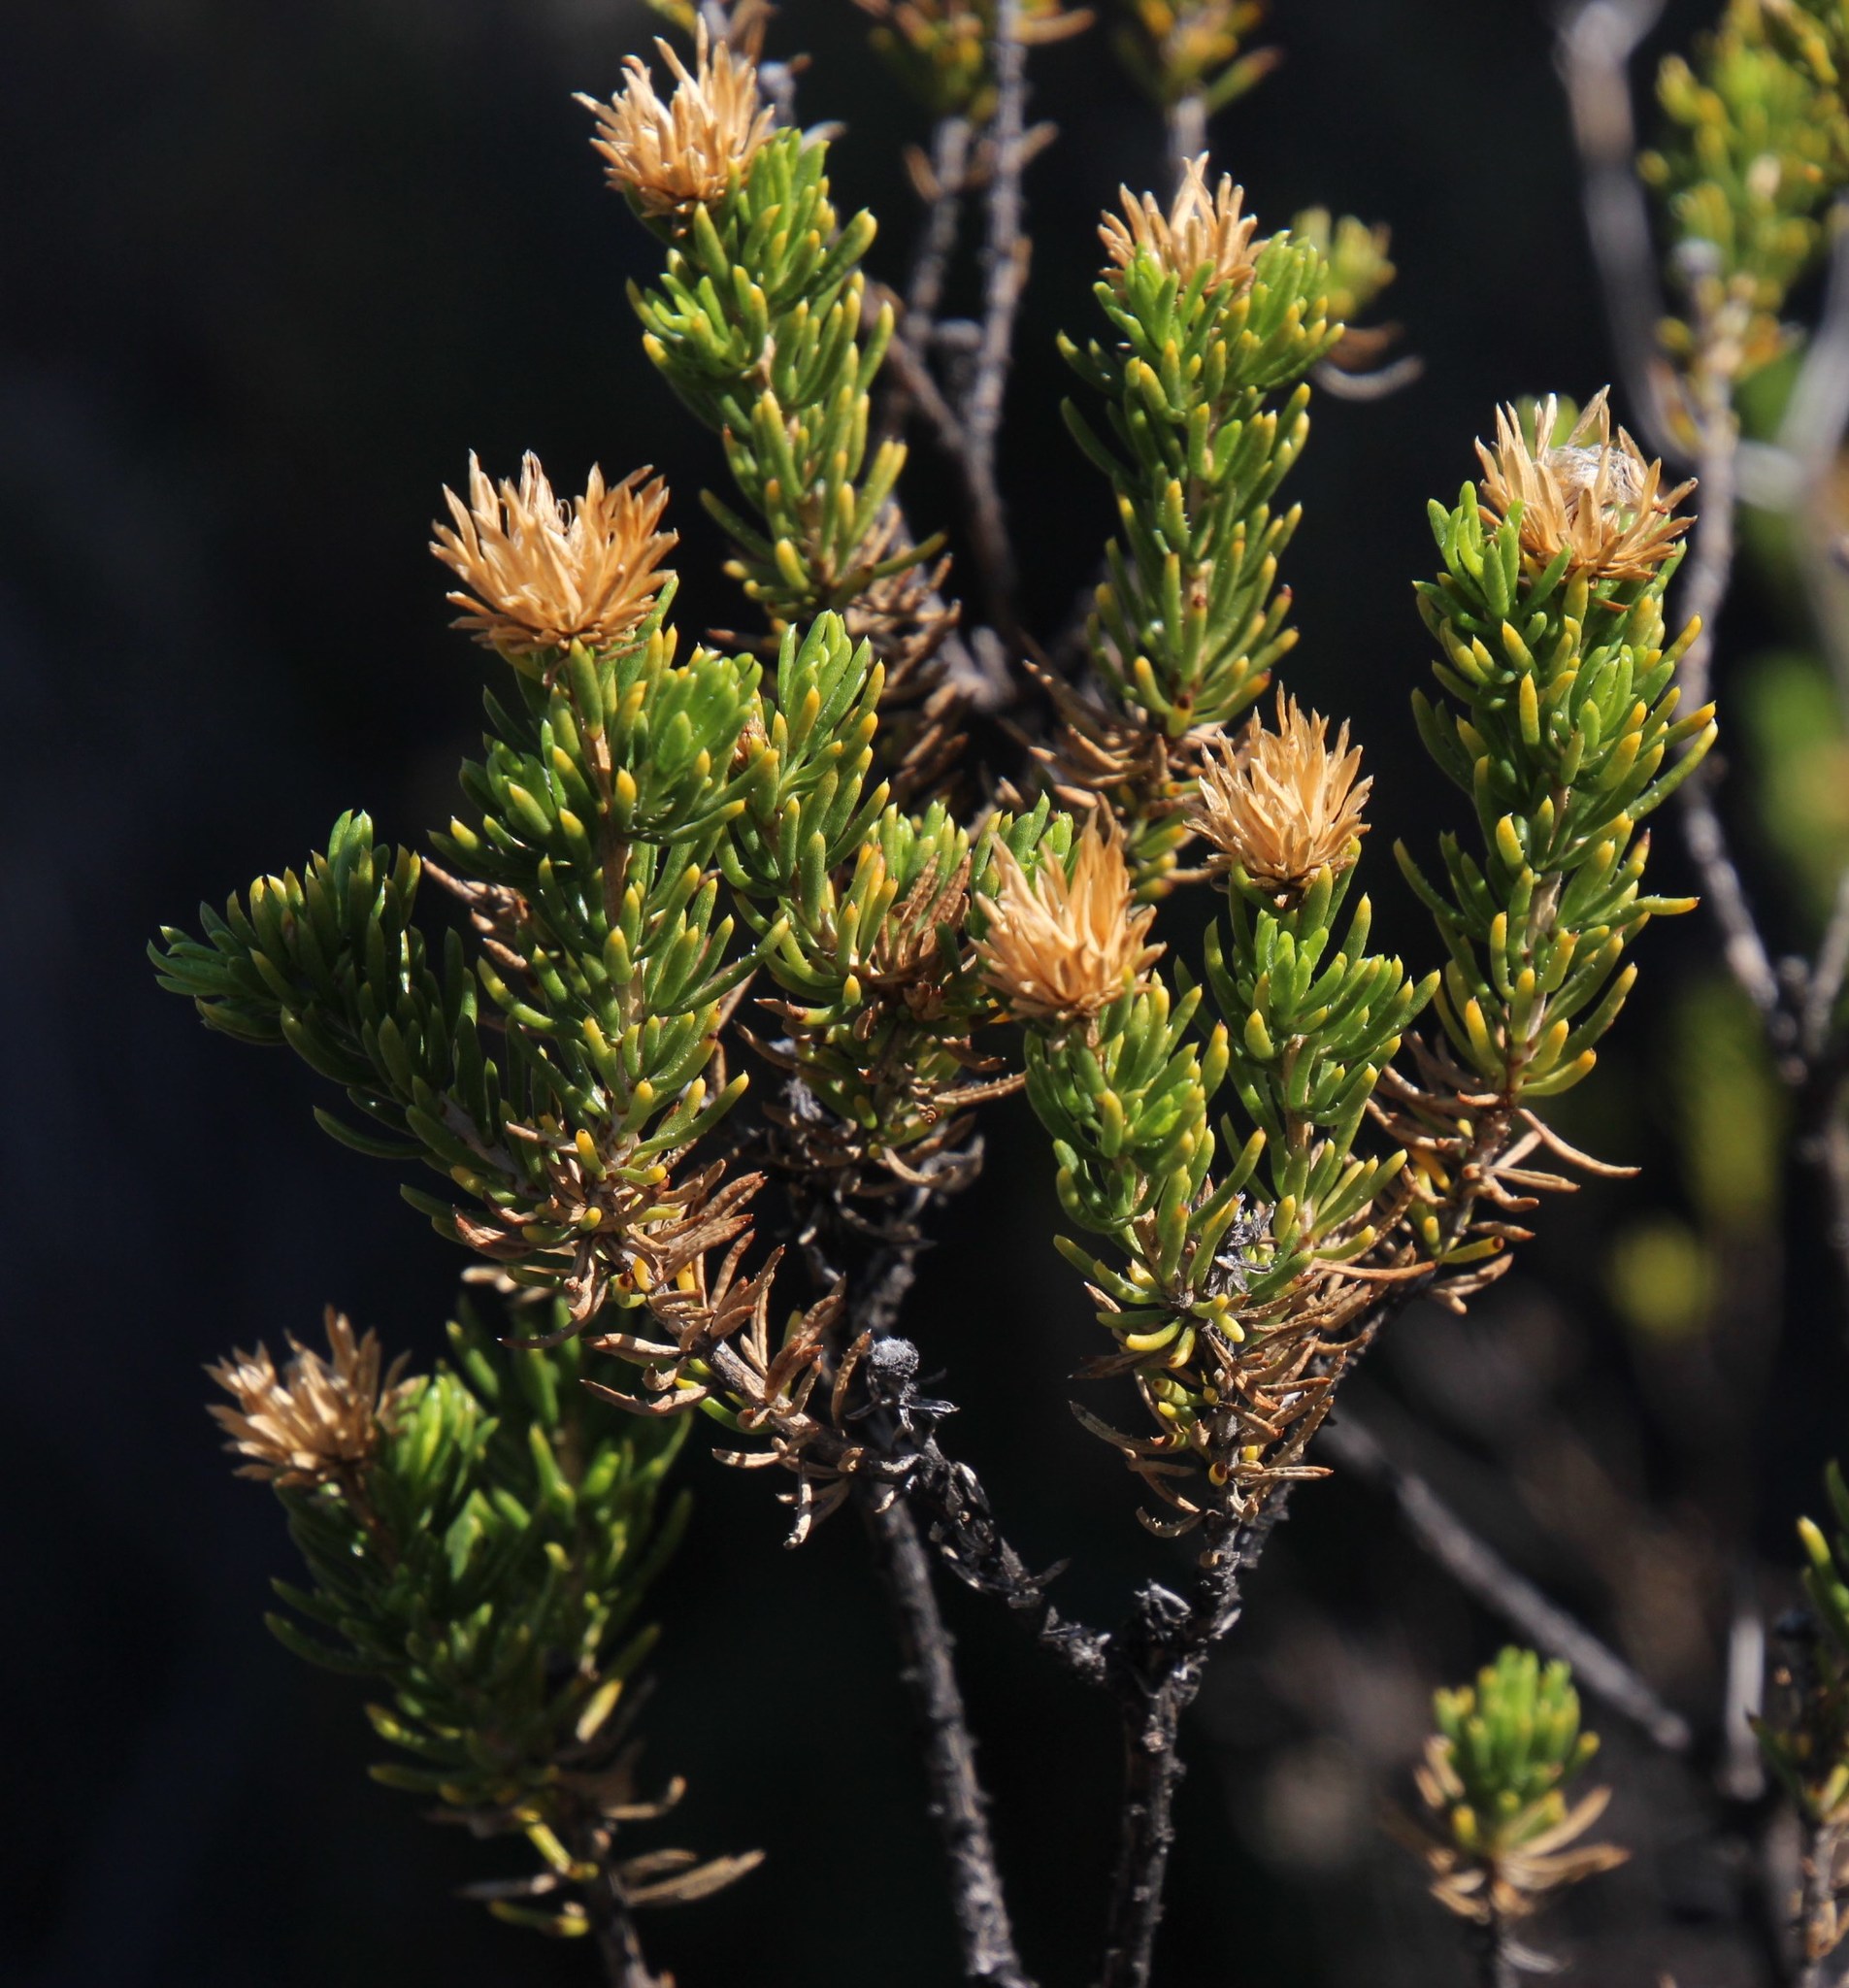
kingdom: Plantae
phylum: Tracheophyta
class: Magnoliopsida
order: Asterales
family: Asteraceae
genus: Pteronia
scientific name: Pteronia camphorata
